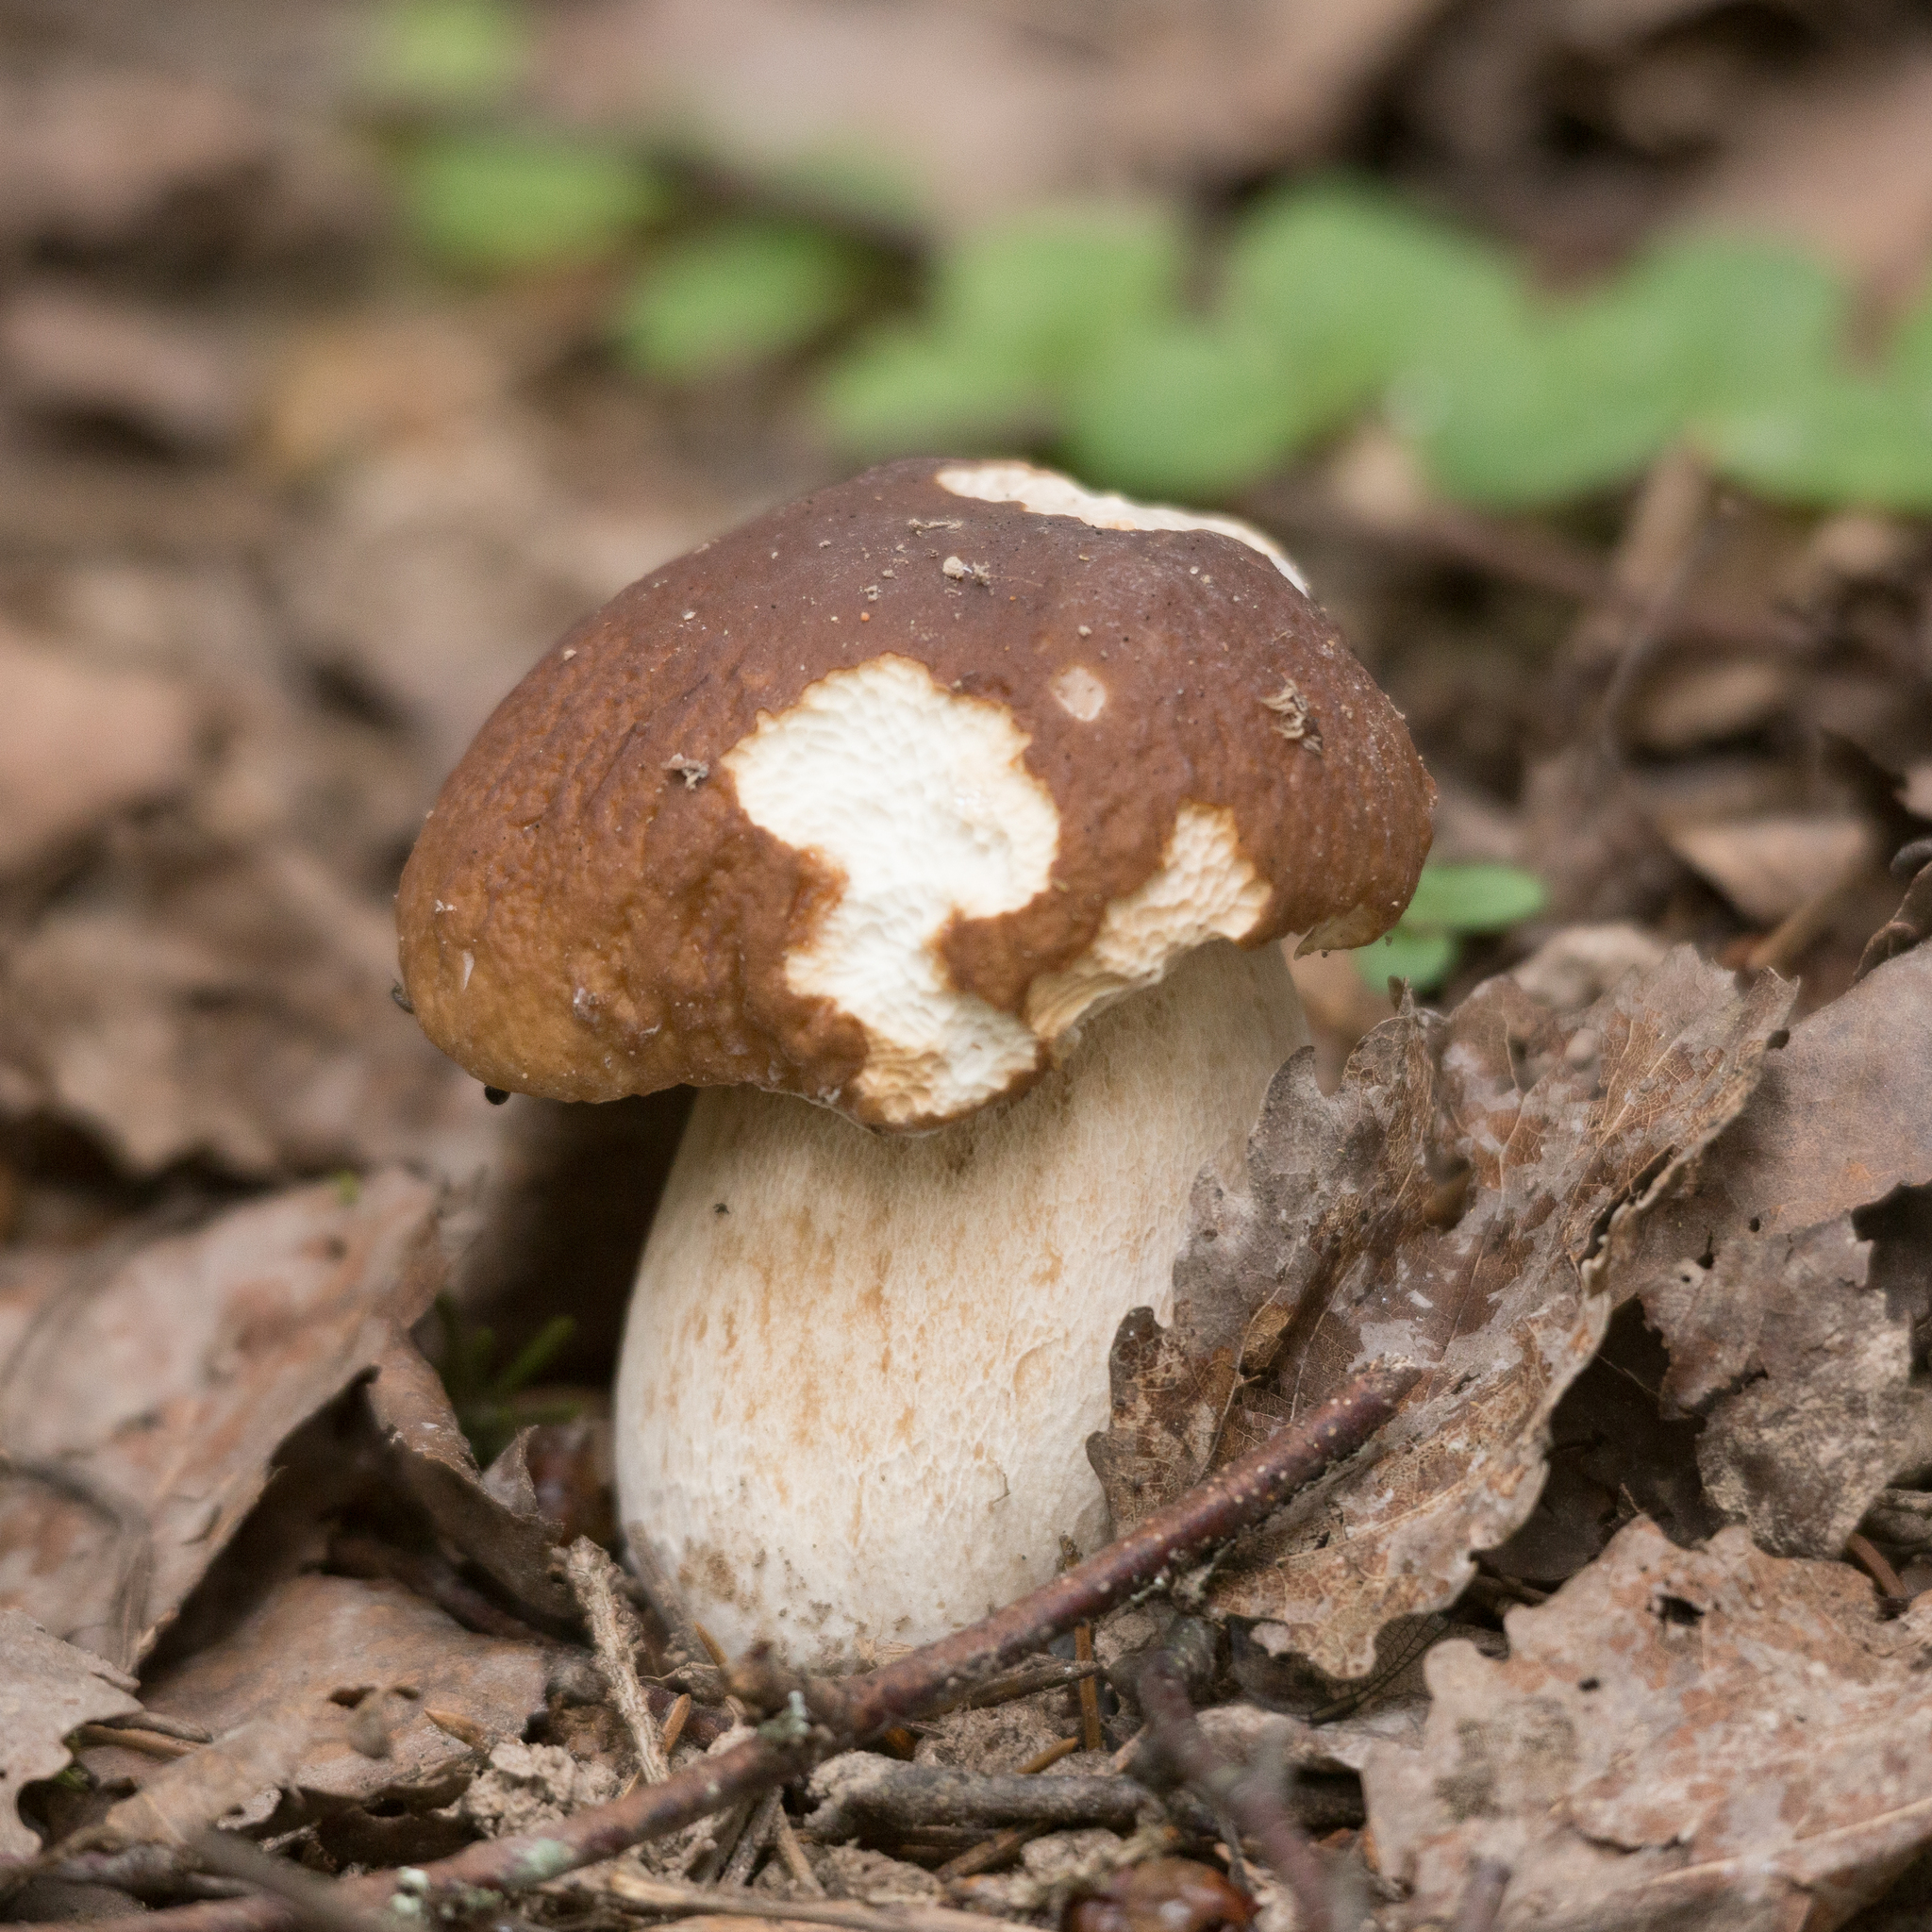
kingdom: Fungi
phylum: Basidiomycota
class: Agaricomycetes
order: Boletales
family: Boletaceae
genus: Boletus
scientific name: Boletus edulis
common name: Cep
